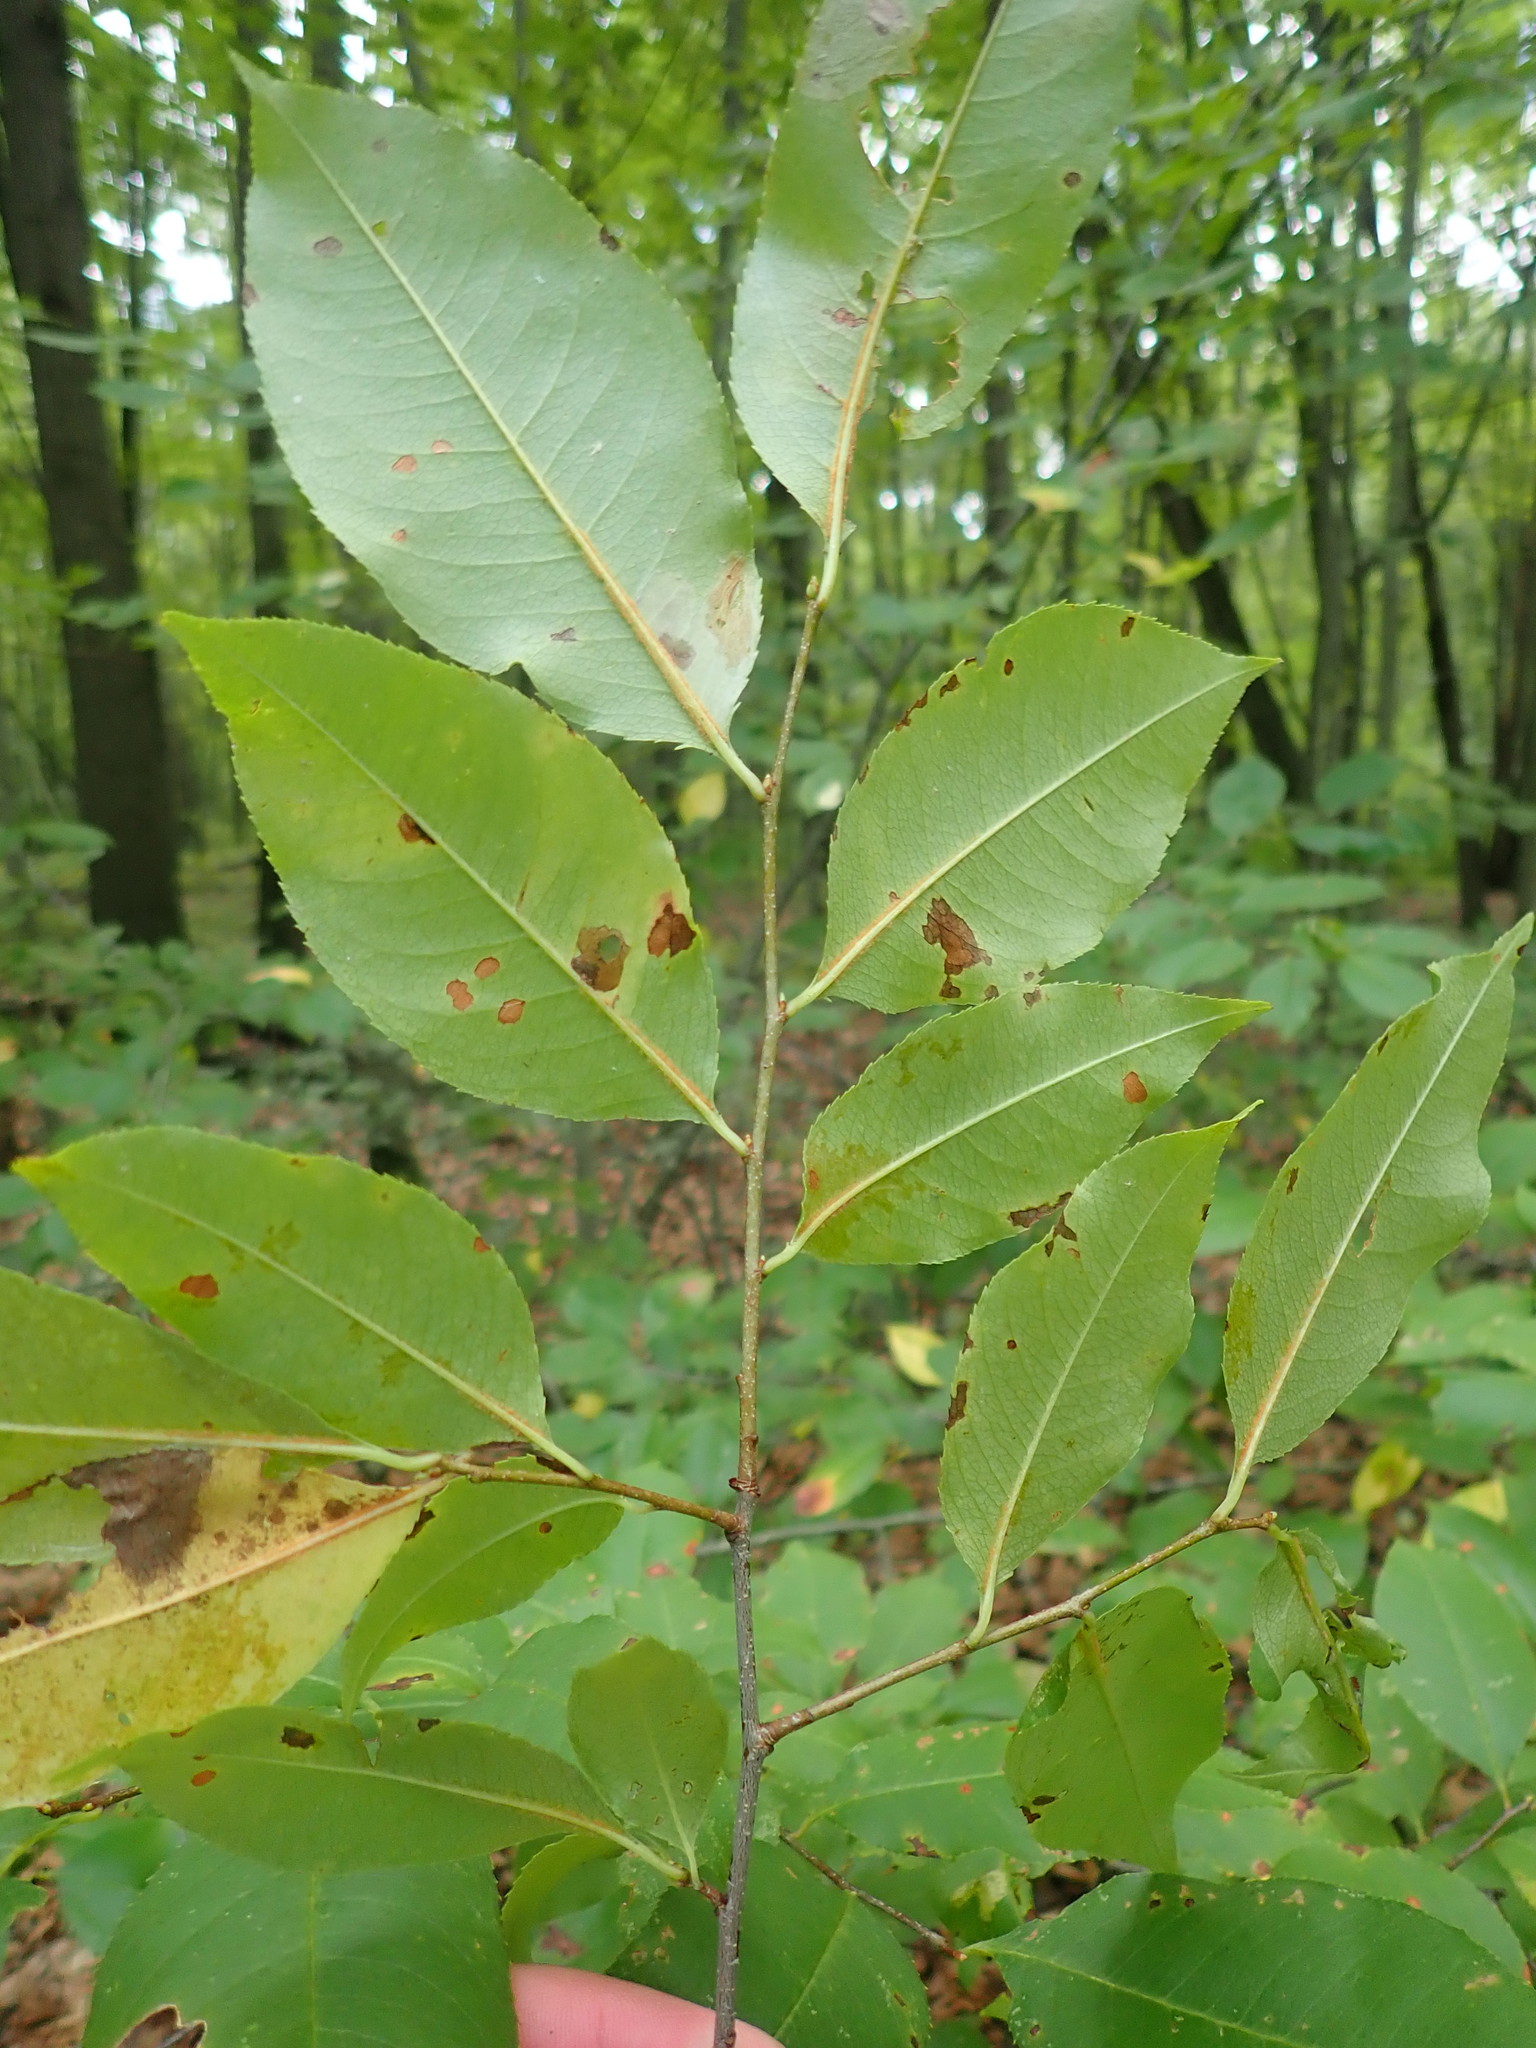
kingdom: Plantae
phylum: Tracheophyta
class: Magnoliopsida
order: Rosales
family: Rosaceae
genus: Prunus
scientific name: Prunus serotina
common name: Black cherry
